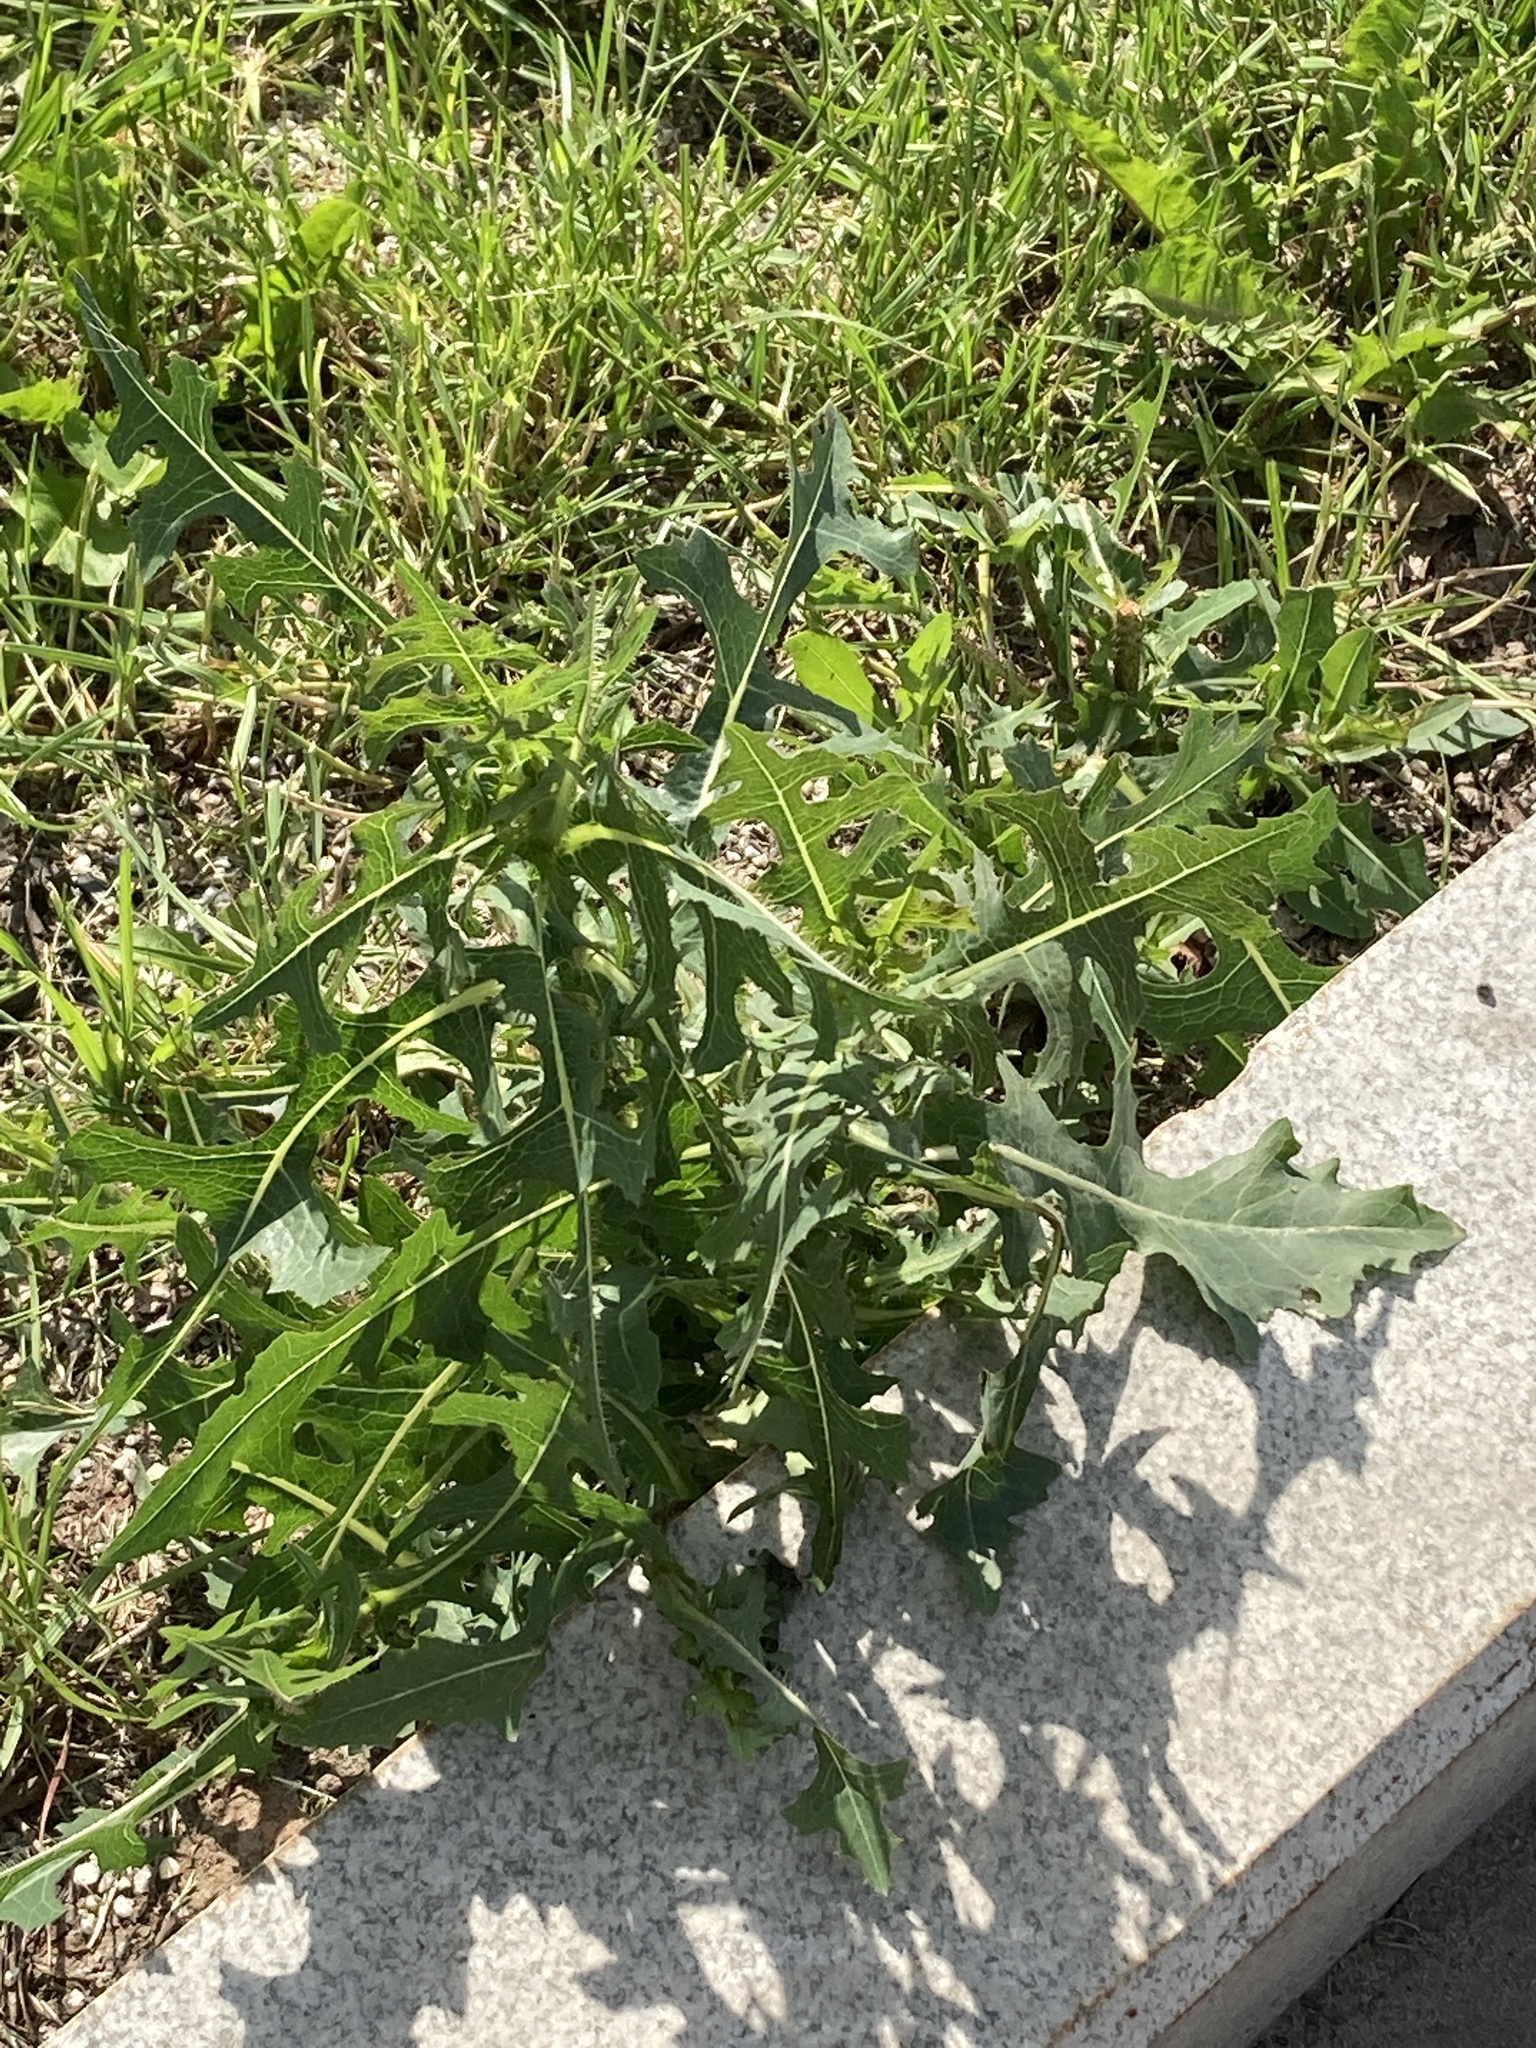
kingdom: Plantae
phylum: Tracheophyta
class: Magnoliopsida
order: Asterales
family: Asteraceae
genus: Lactuca
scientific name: Lactuca serriola
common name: Prickly lettuce
